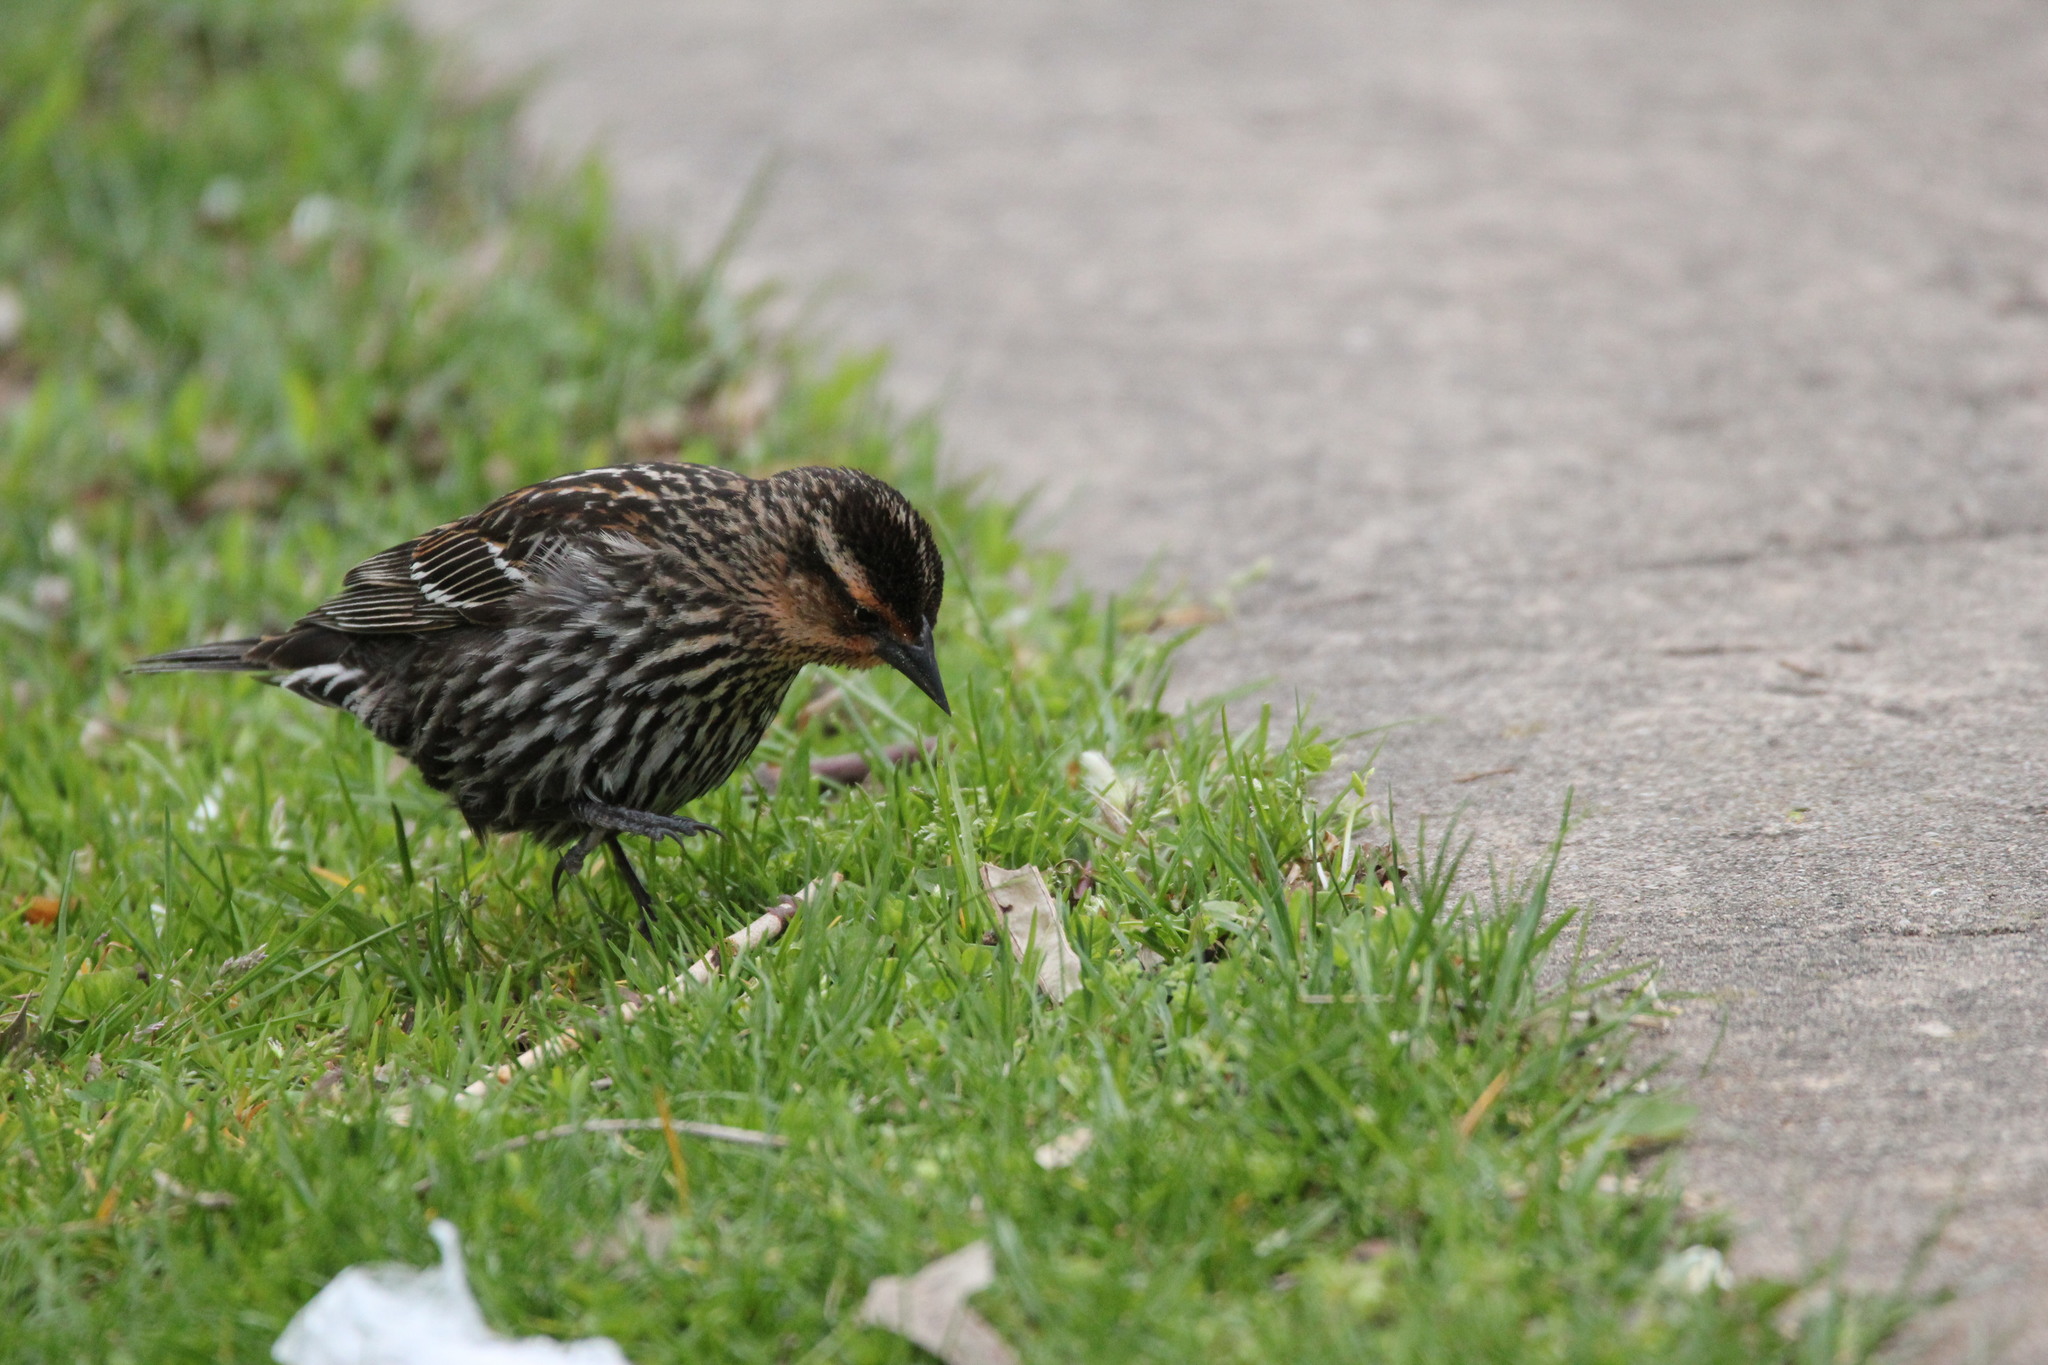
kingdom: Animalia
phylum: Chordata
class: Aves
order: Passeriformes
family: Icteridae
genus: Agelaius
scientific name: Agelaius phoeniceus
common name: Red-winged blackbird
